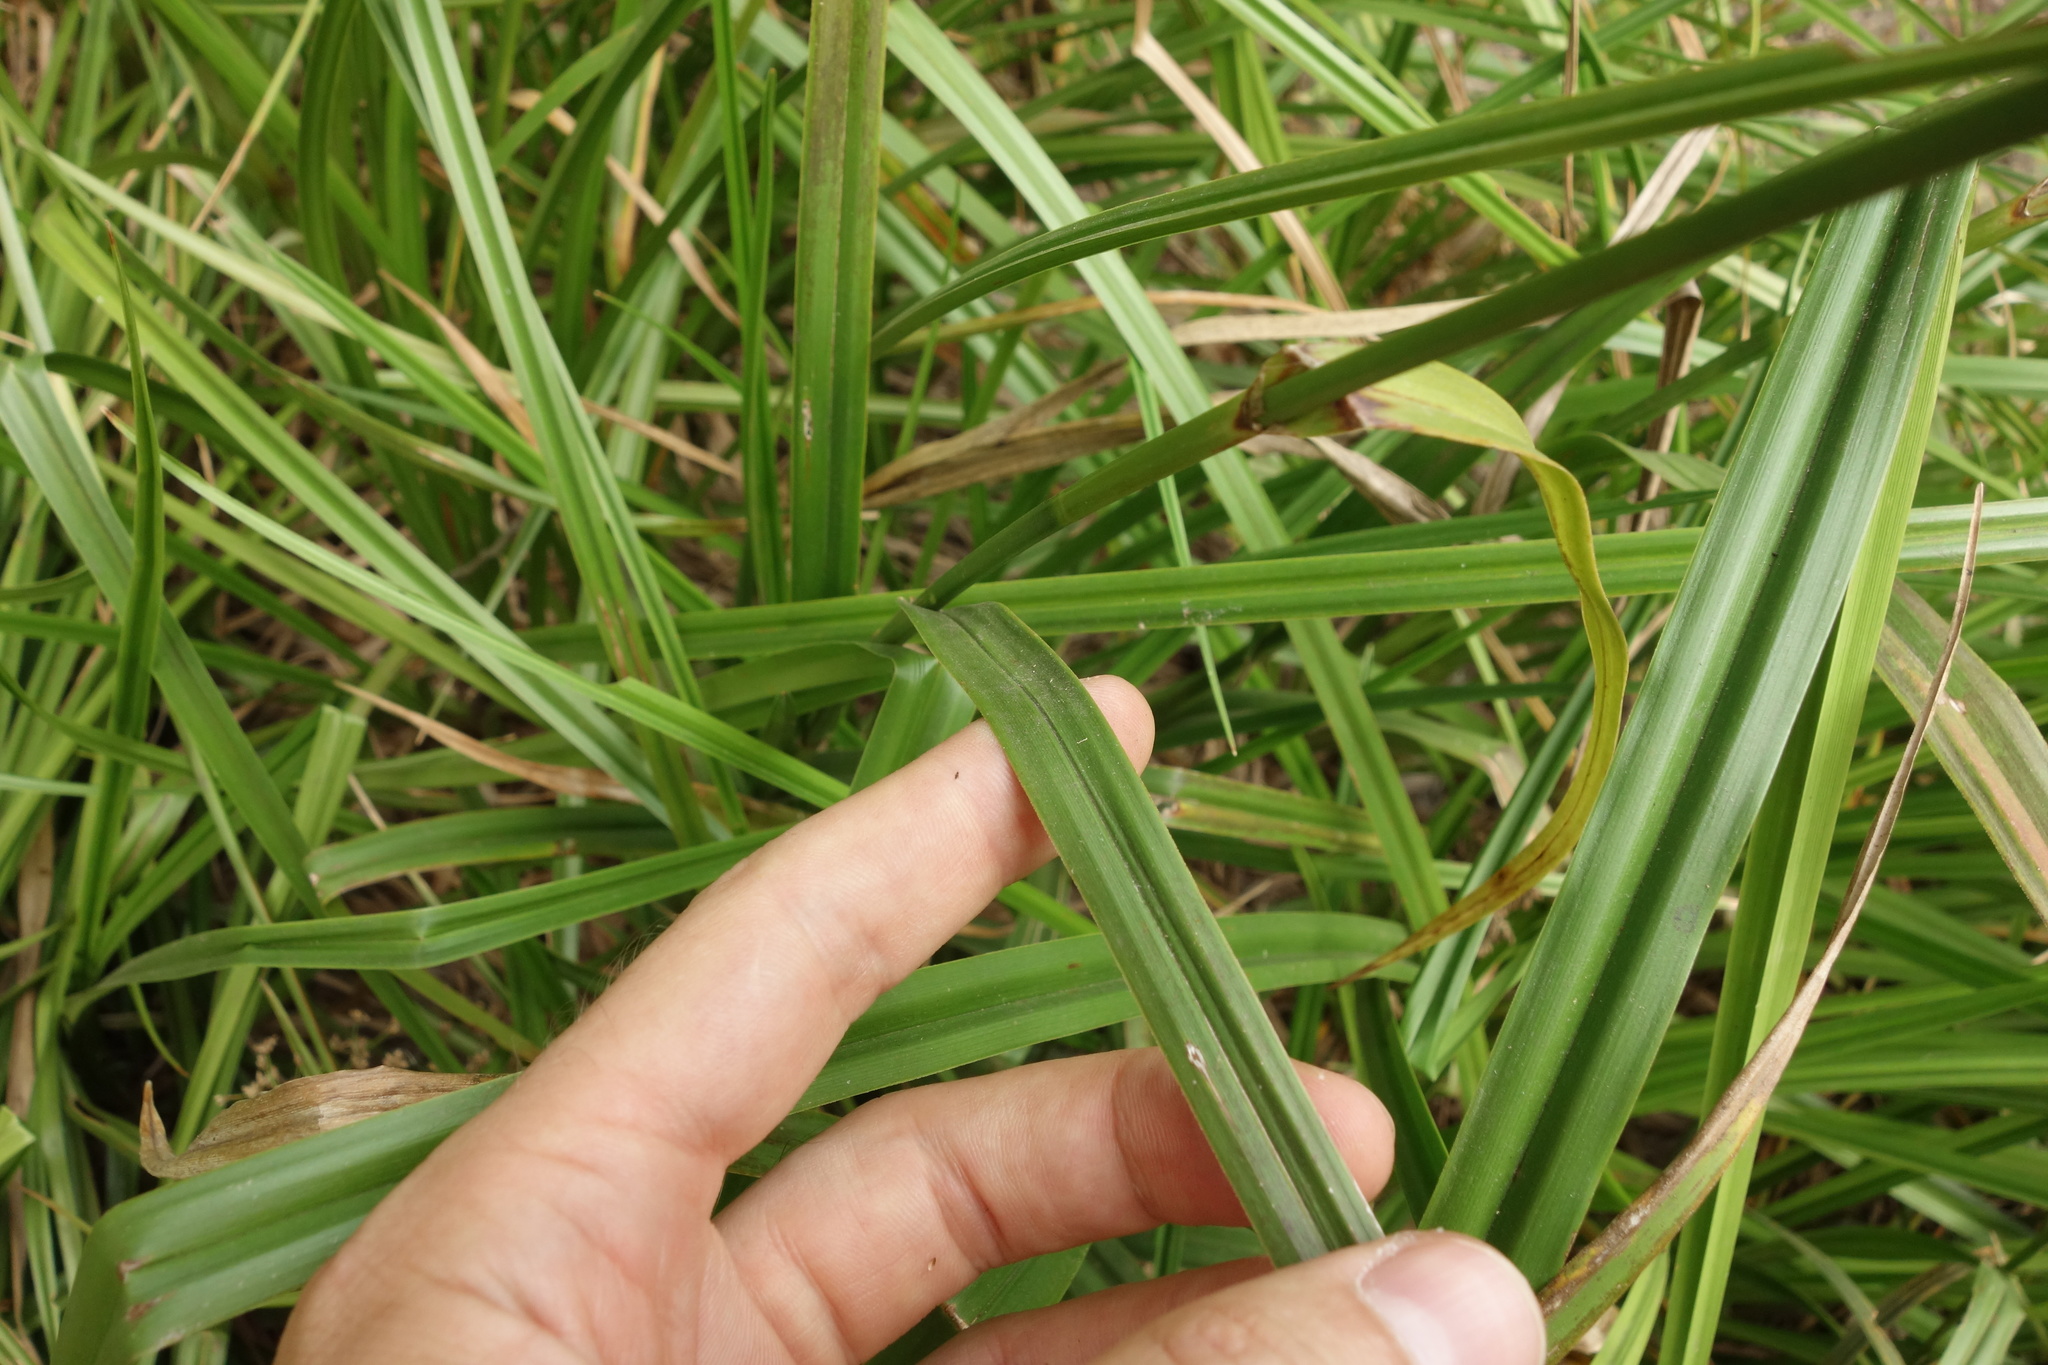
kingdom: Plantae
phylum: Tracheophyta
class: Liliopsida
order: Poales
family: Cyperaceae
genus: Scirpus
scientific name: Scirpus sylvaticus
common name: Wood club-rush
